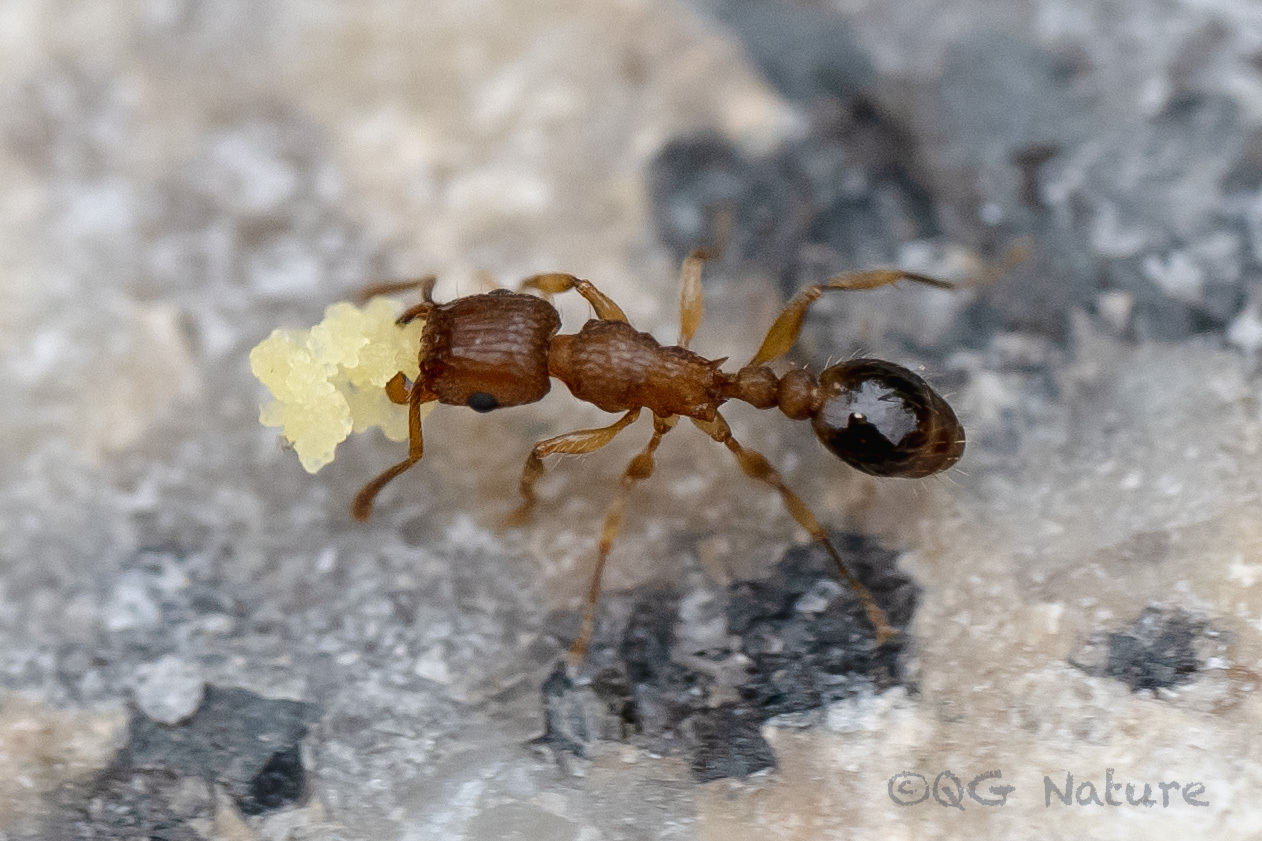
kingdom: Animalia
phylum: Arthropoda
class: Insecta
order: Hymenoptera
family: Formicidae
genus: Tetramorium
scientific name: Tetramorium bicarinatum
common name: Guinea ant
